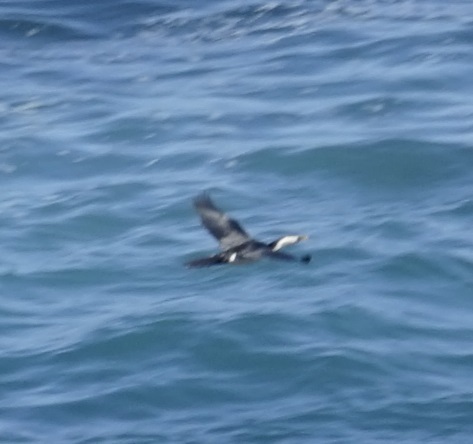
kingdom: Animalia
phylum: Chordata
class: Aves
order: Suliformes
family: Phalacrocoracidae
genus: Microcarbo
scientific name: Microcarbo melanoleucos
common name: Little pied cormorant
